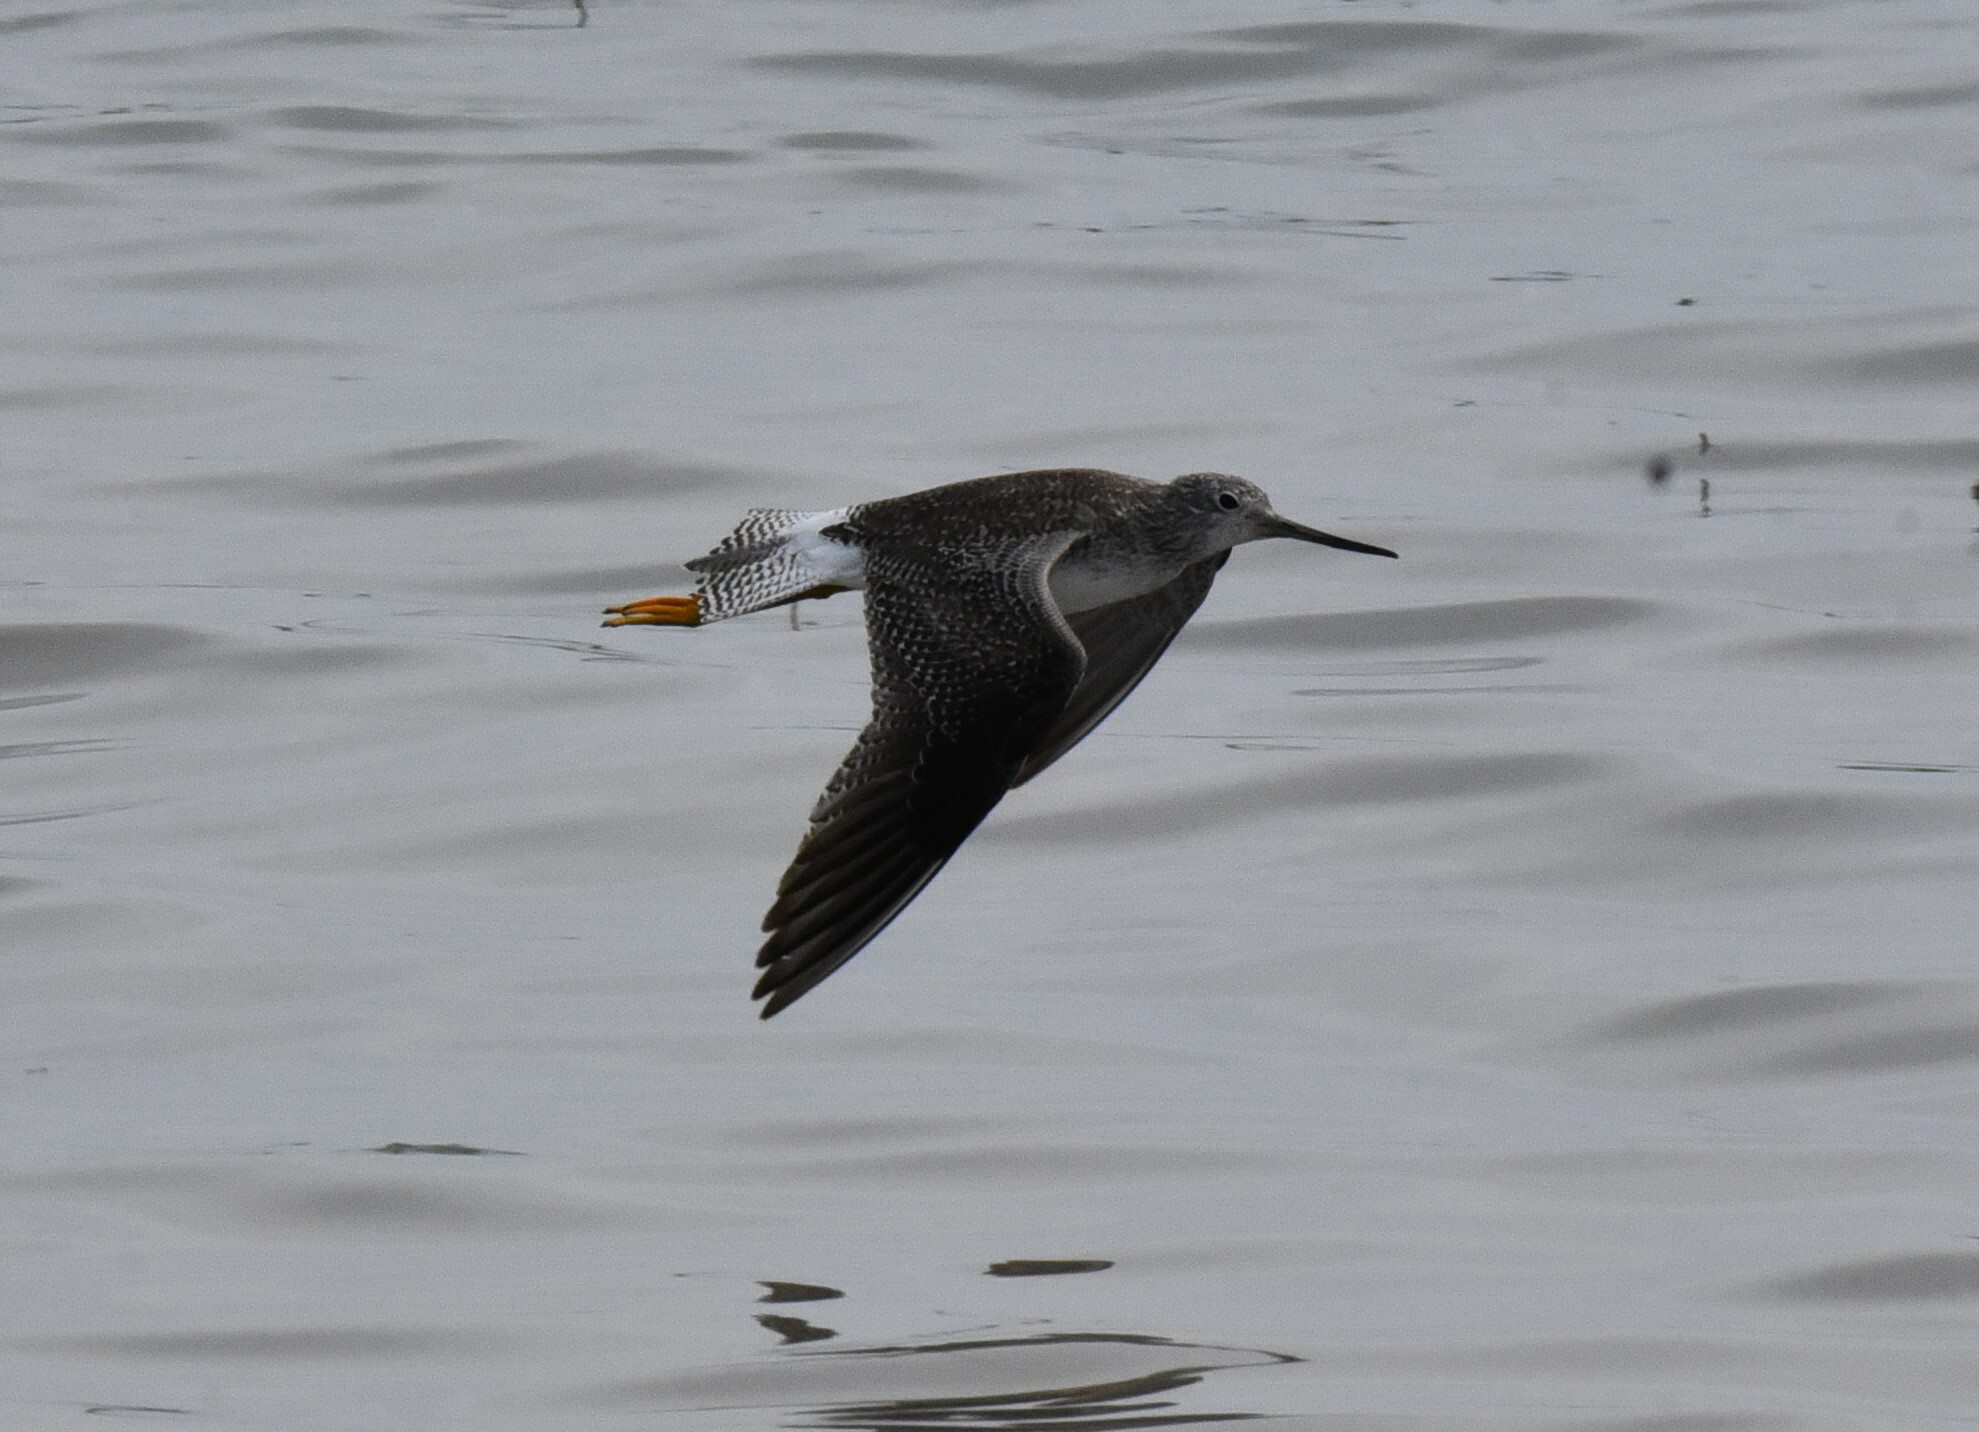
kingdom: Animalia
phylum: Chordata
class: Aves
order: Charadriiformes
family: Scolopacidae
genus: Tringa
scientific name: Tringa melanoleuca
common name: Greater yellowlegs
